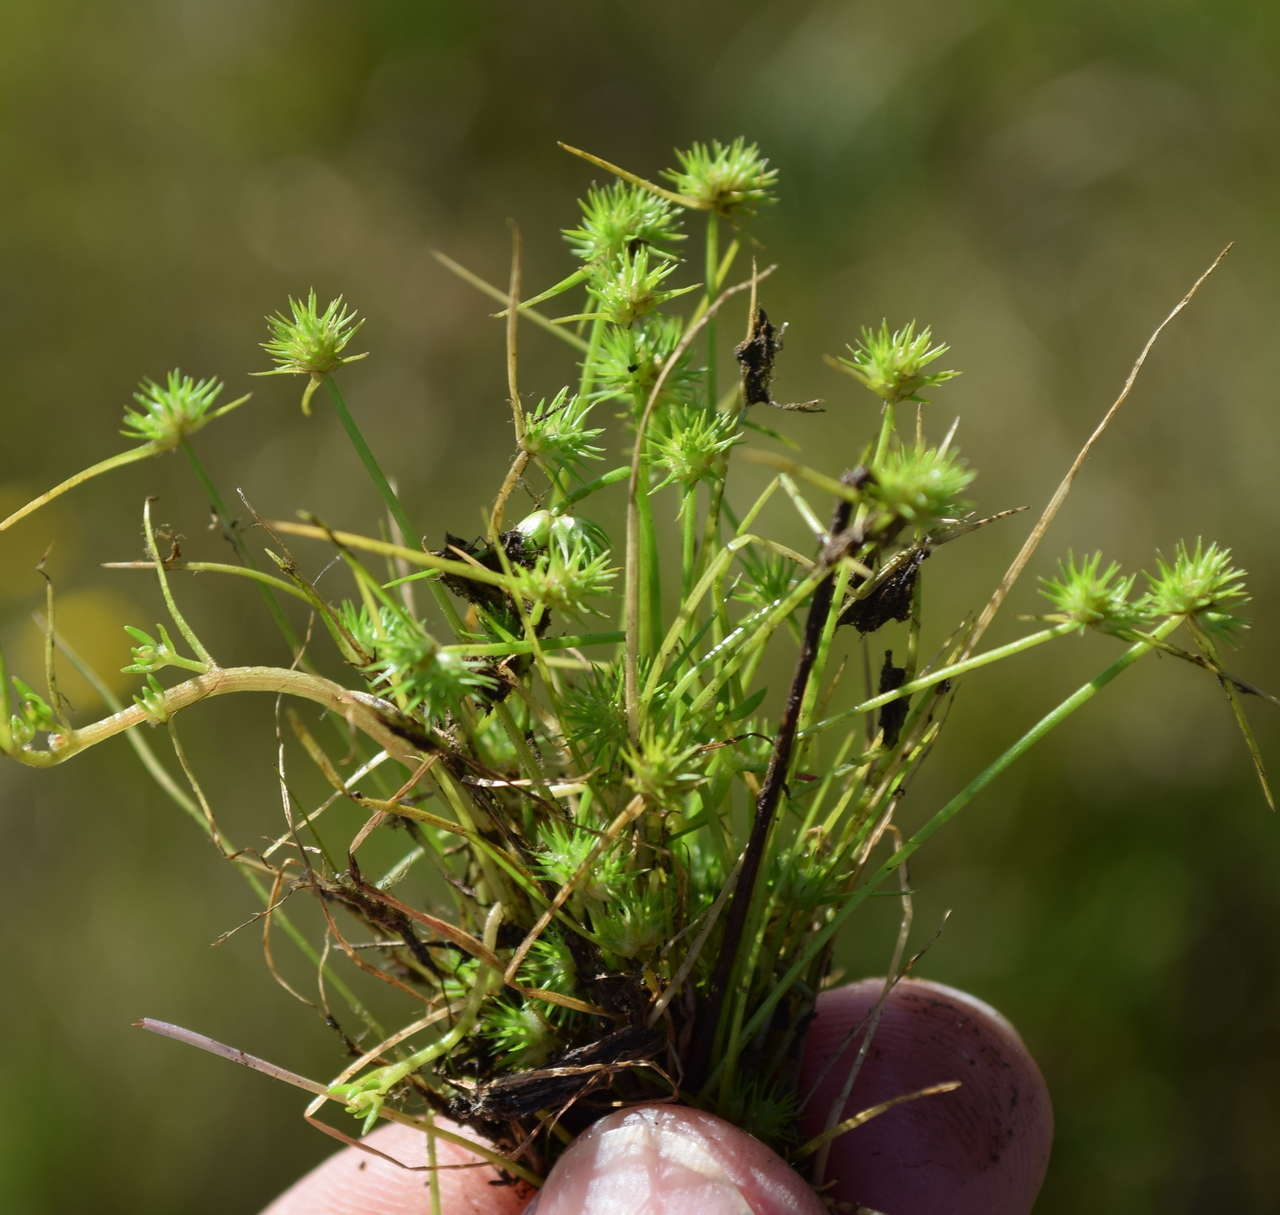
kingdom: Plantae
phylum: Tracheophyta
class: Liliopsida
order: Poales
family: Cyperaceae
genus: Isolepis
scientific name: Isolepis hystrix
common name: Bottlebrush bulrush
